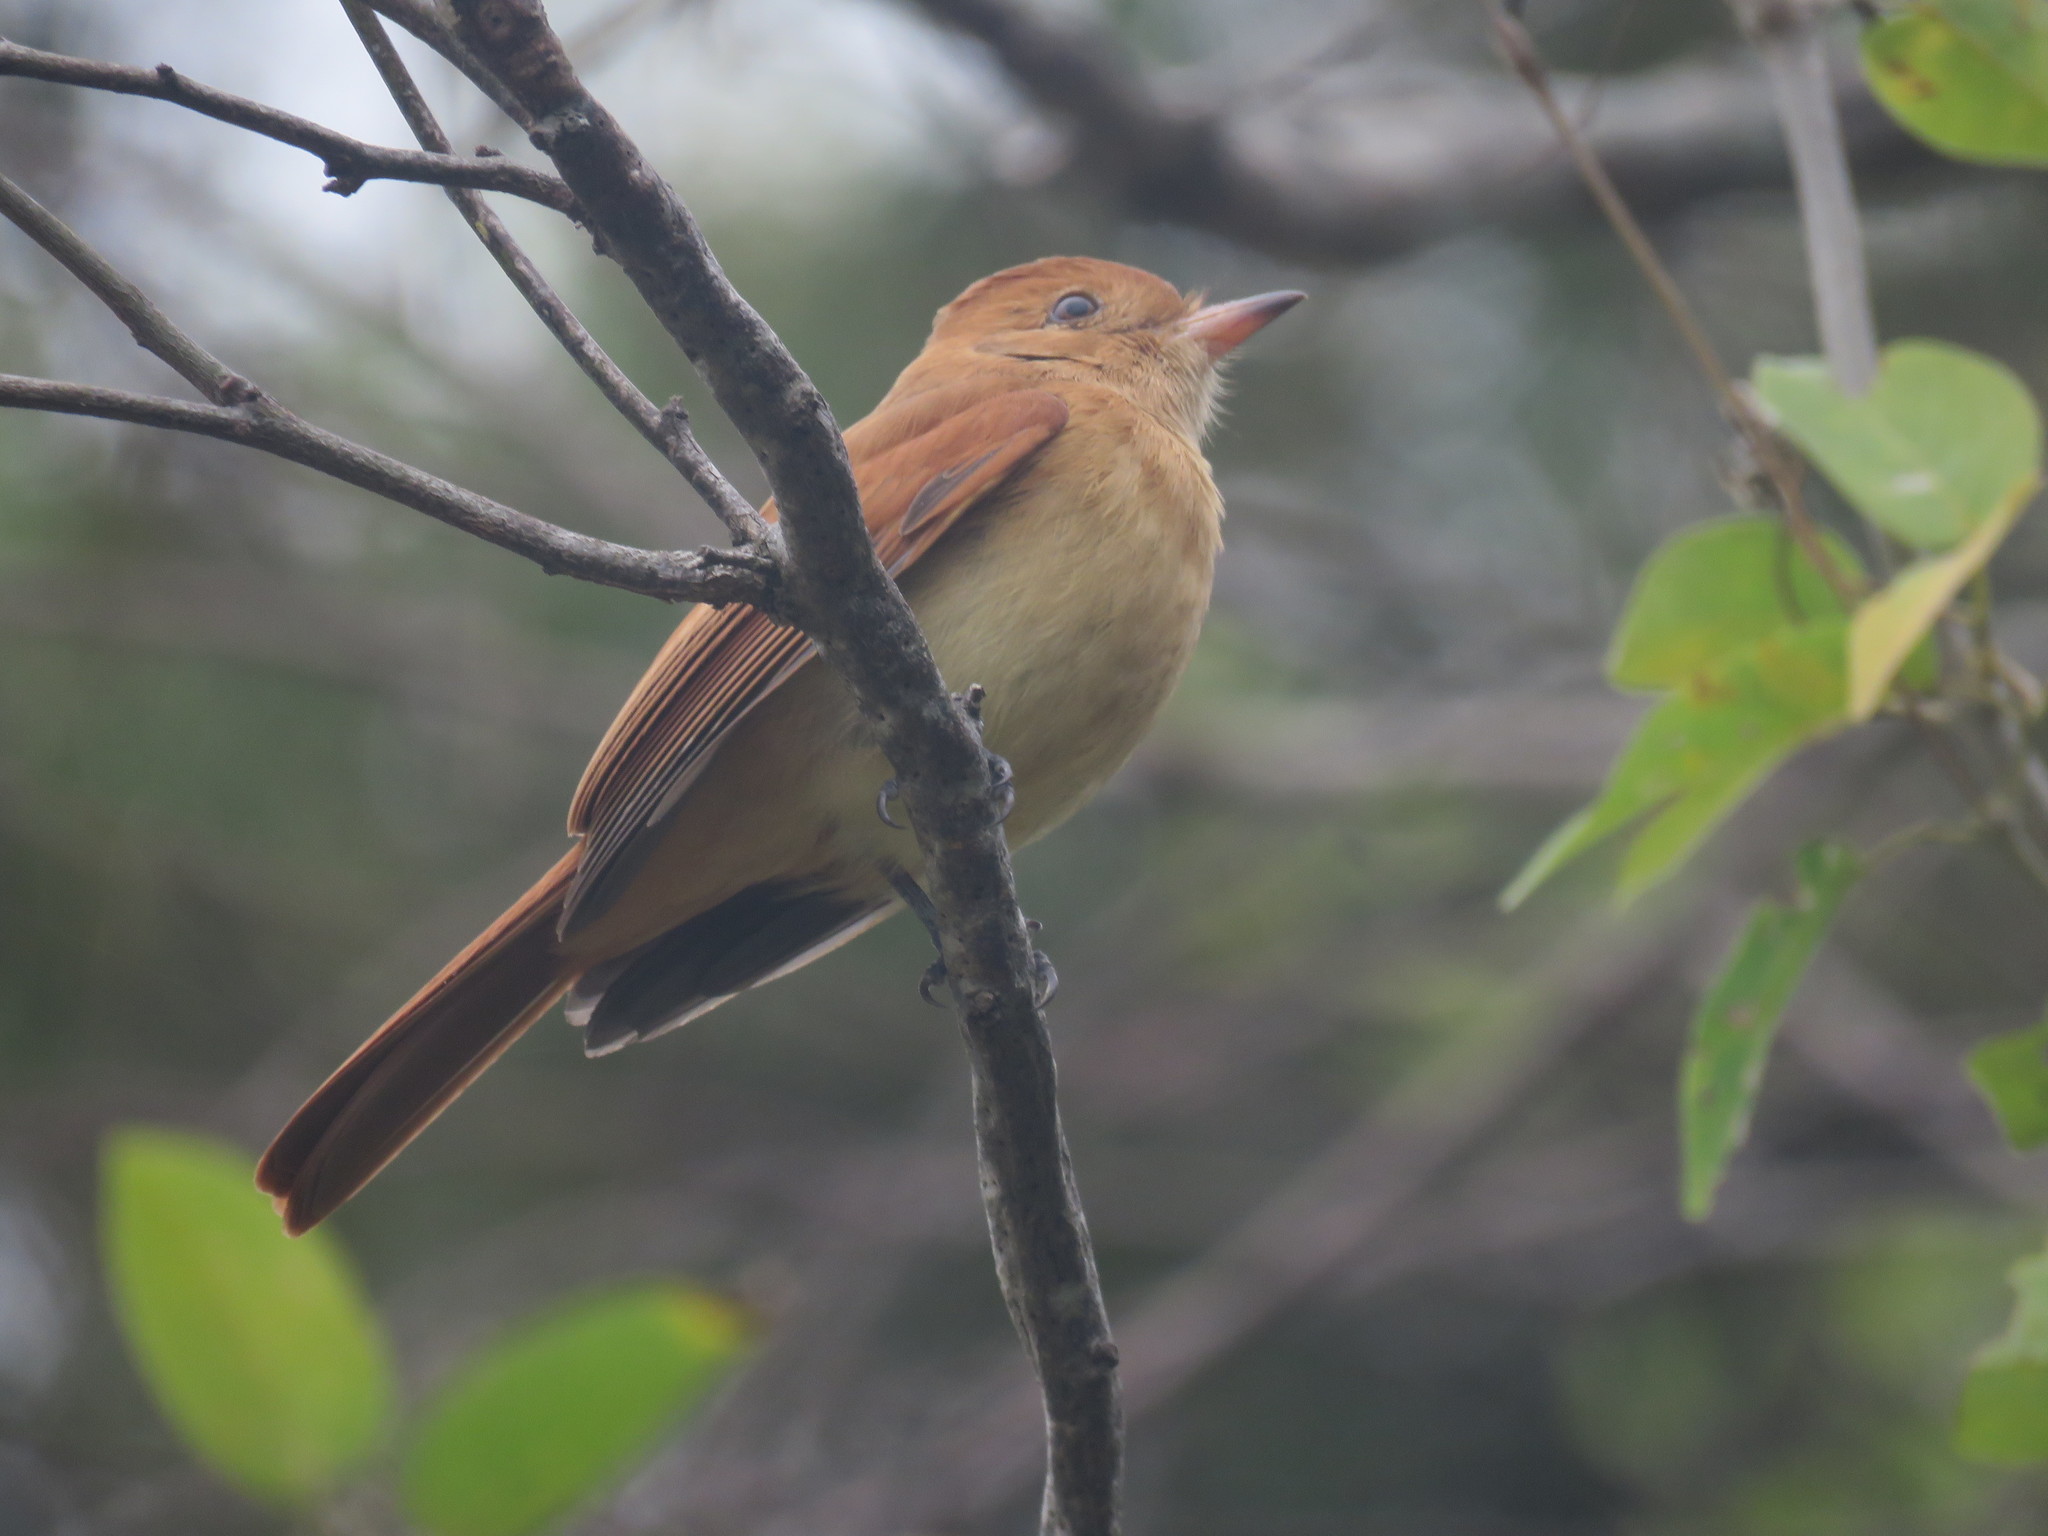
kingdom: Animalia
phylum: Chordata
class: Aves
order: Passeriformes
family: Tyrannidae
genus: Casiornis
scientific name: Casiornis rufus
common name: Rufous casiornis
